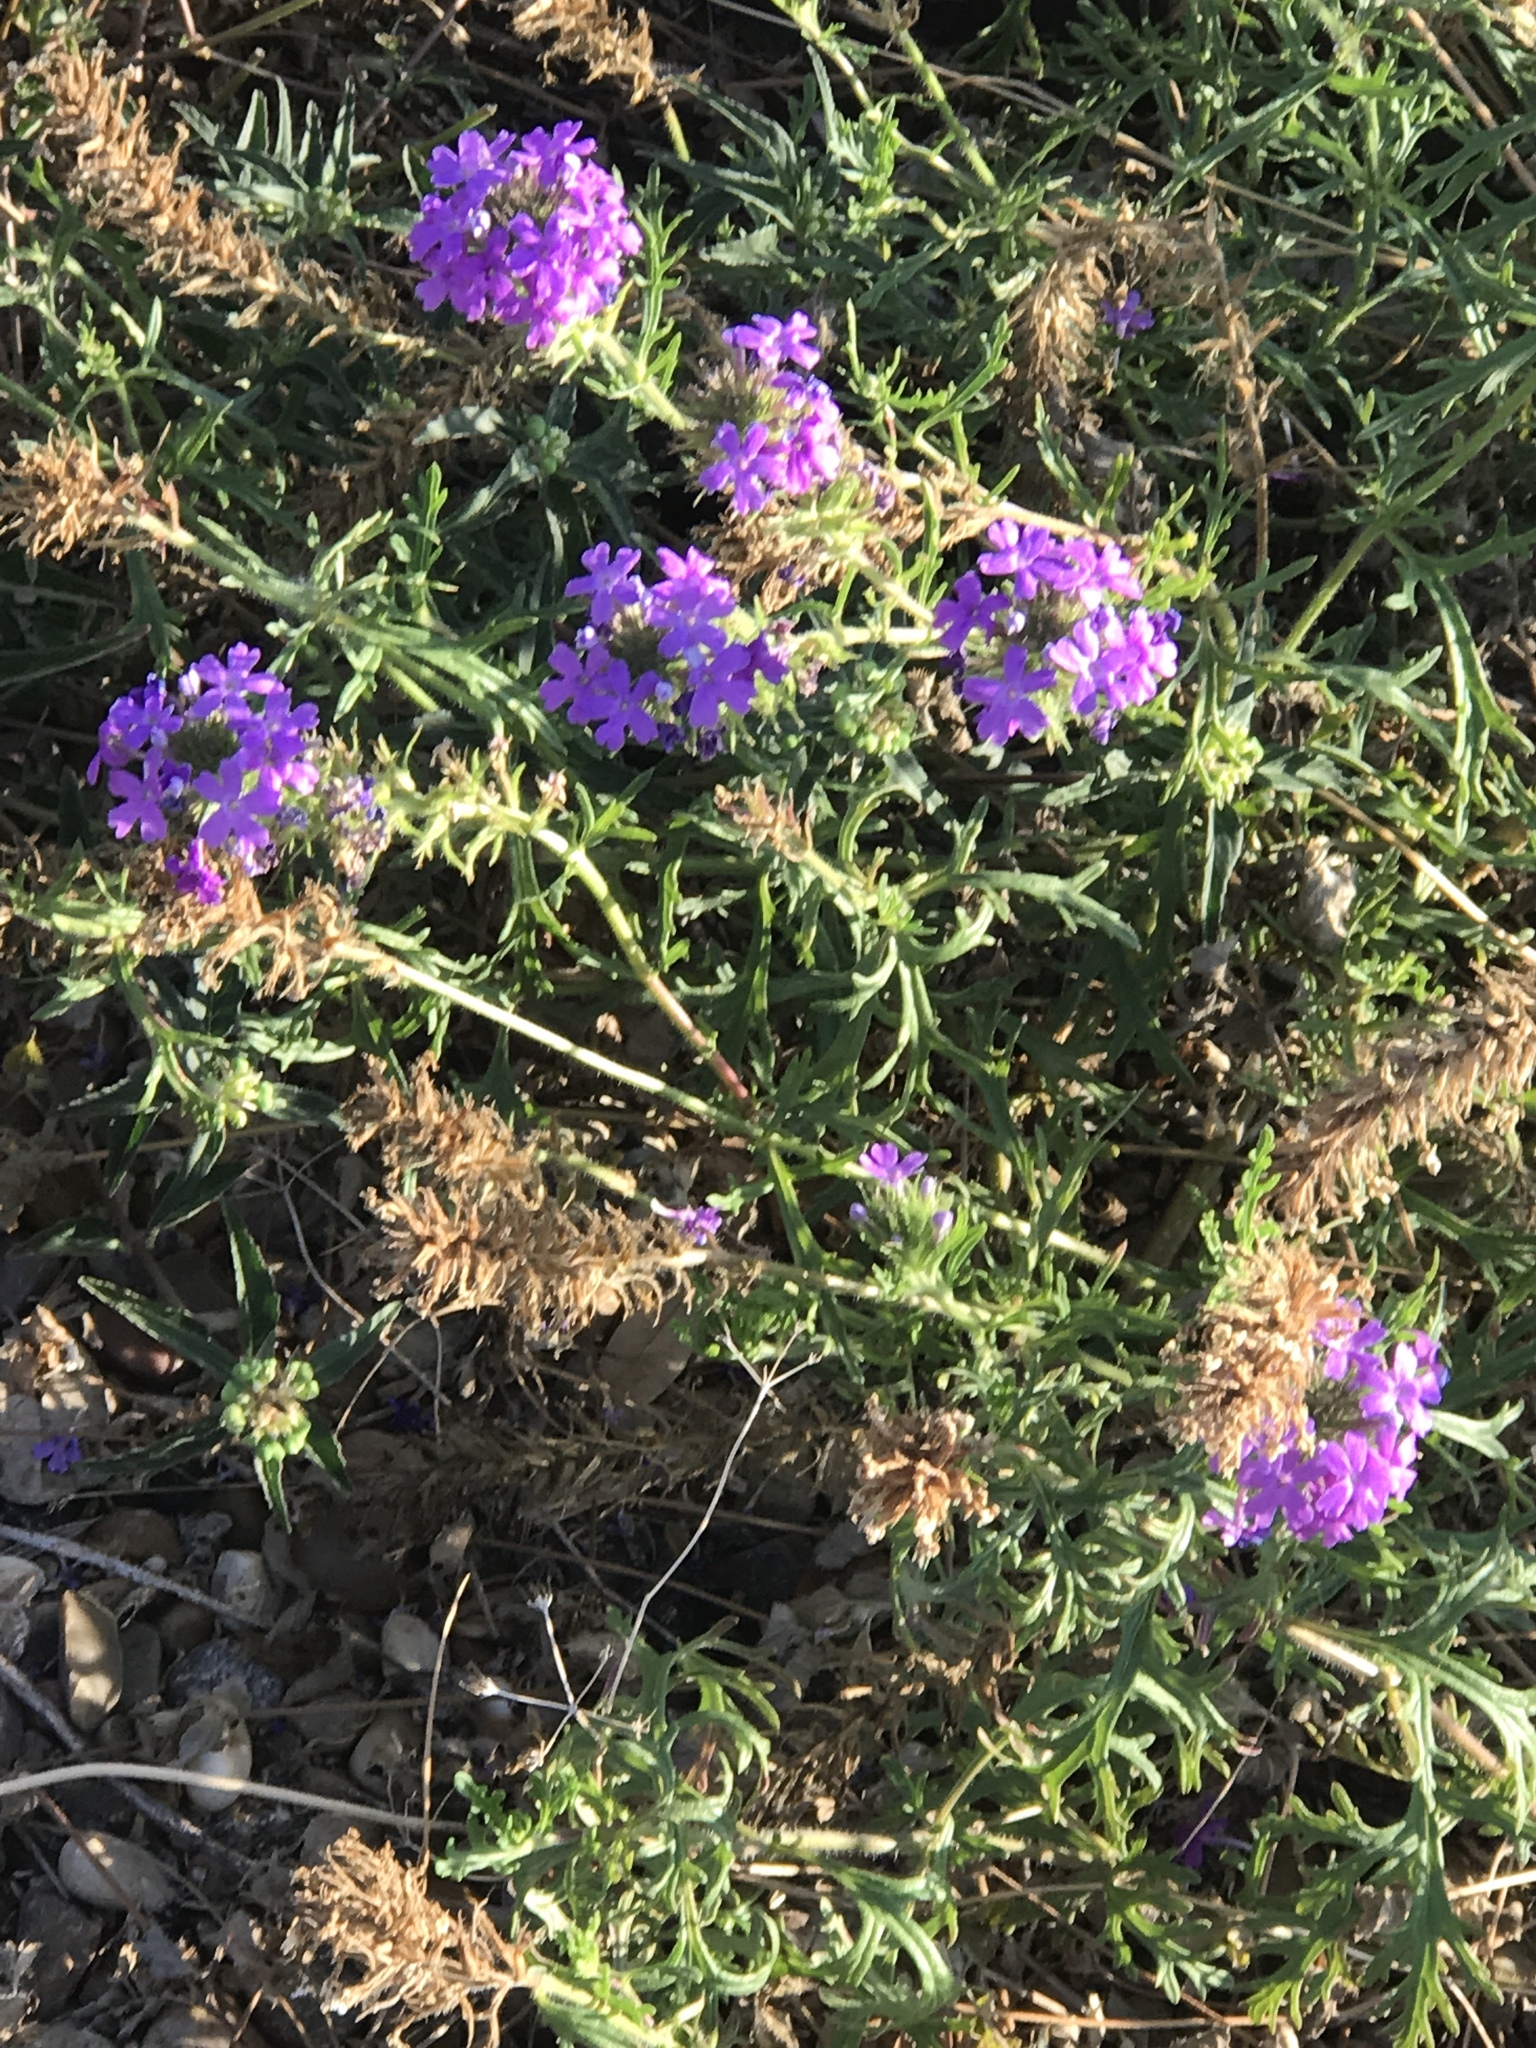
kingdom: Plantae
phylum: Tracheophyta
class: Magnoliopsida
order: Lamiales
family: Verbenaceae
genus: Verbena
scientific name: Verbena bipinnatifida
